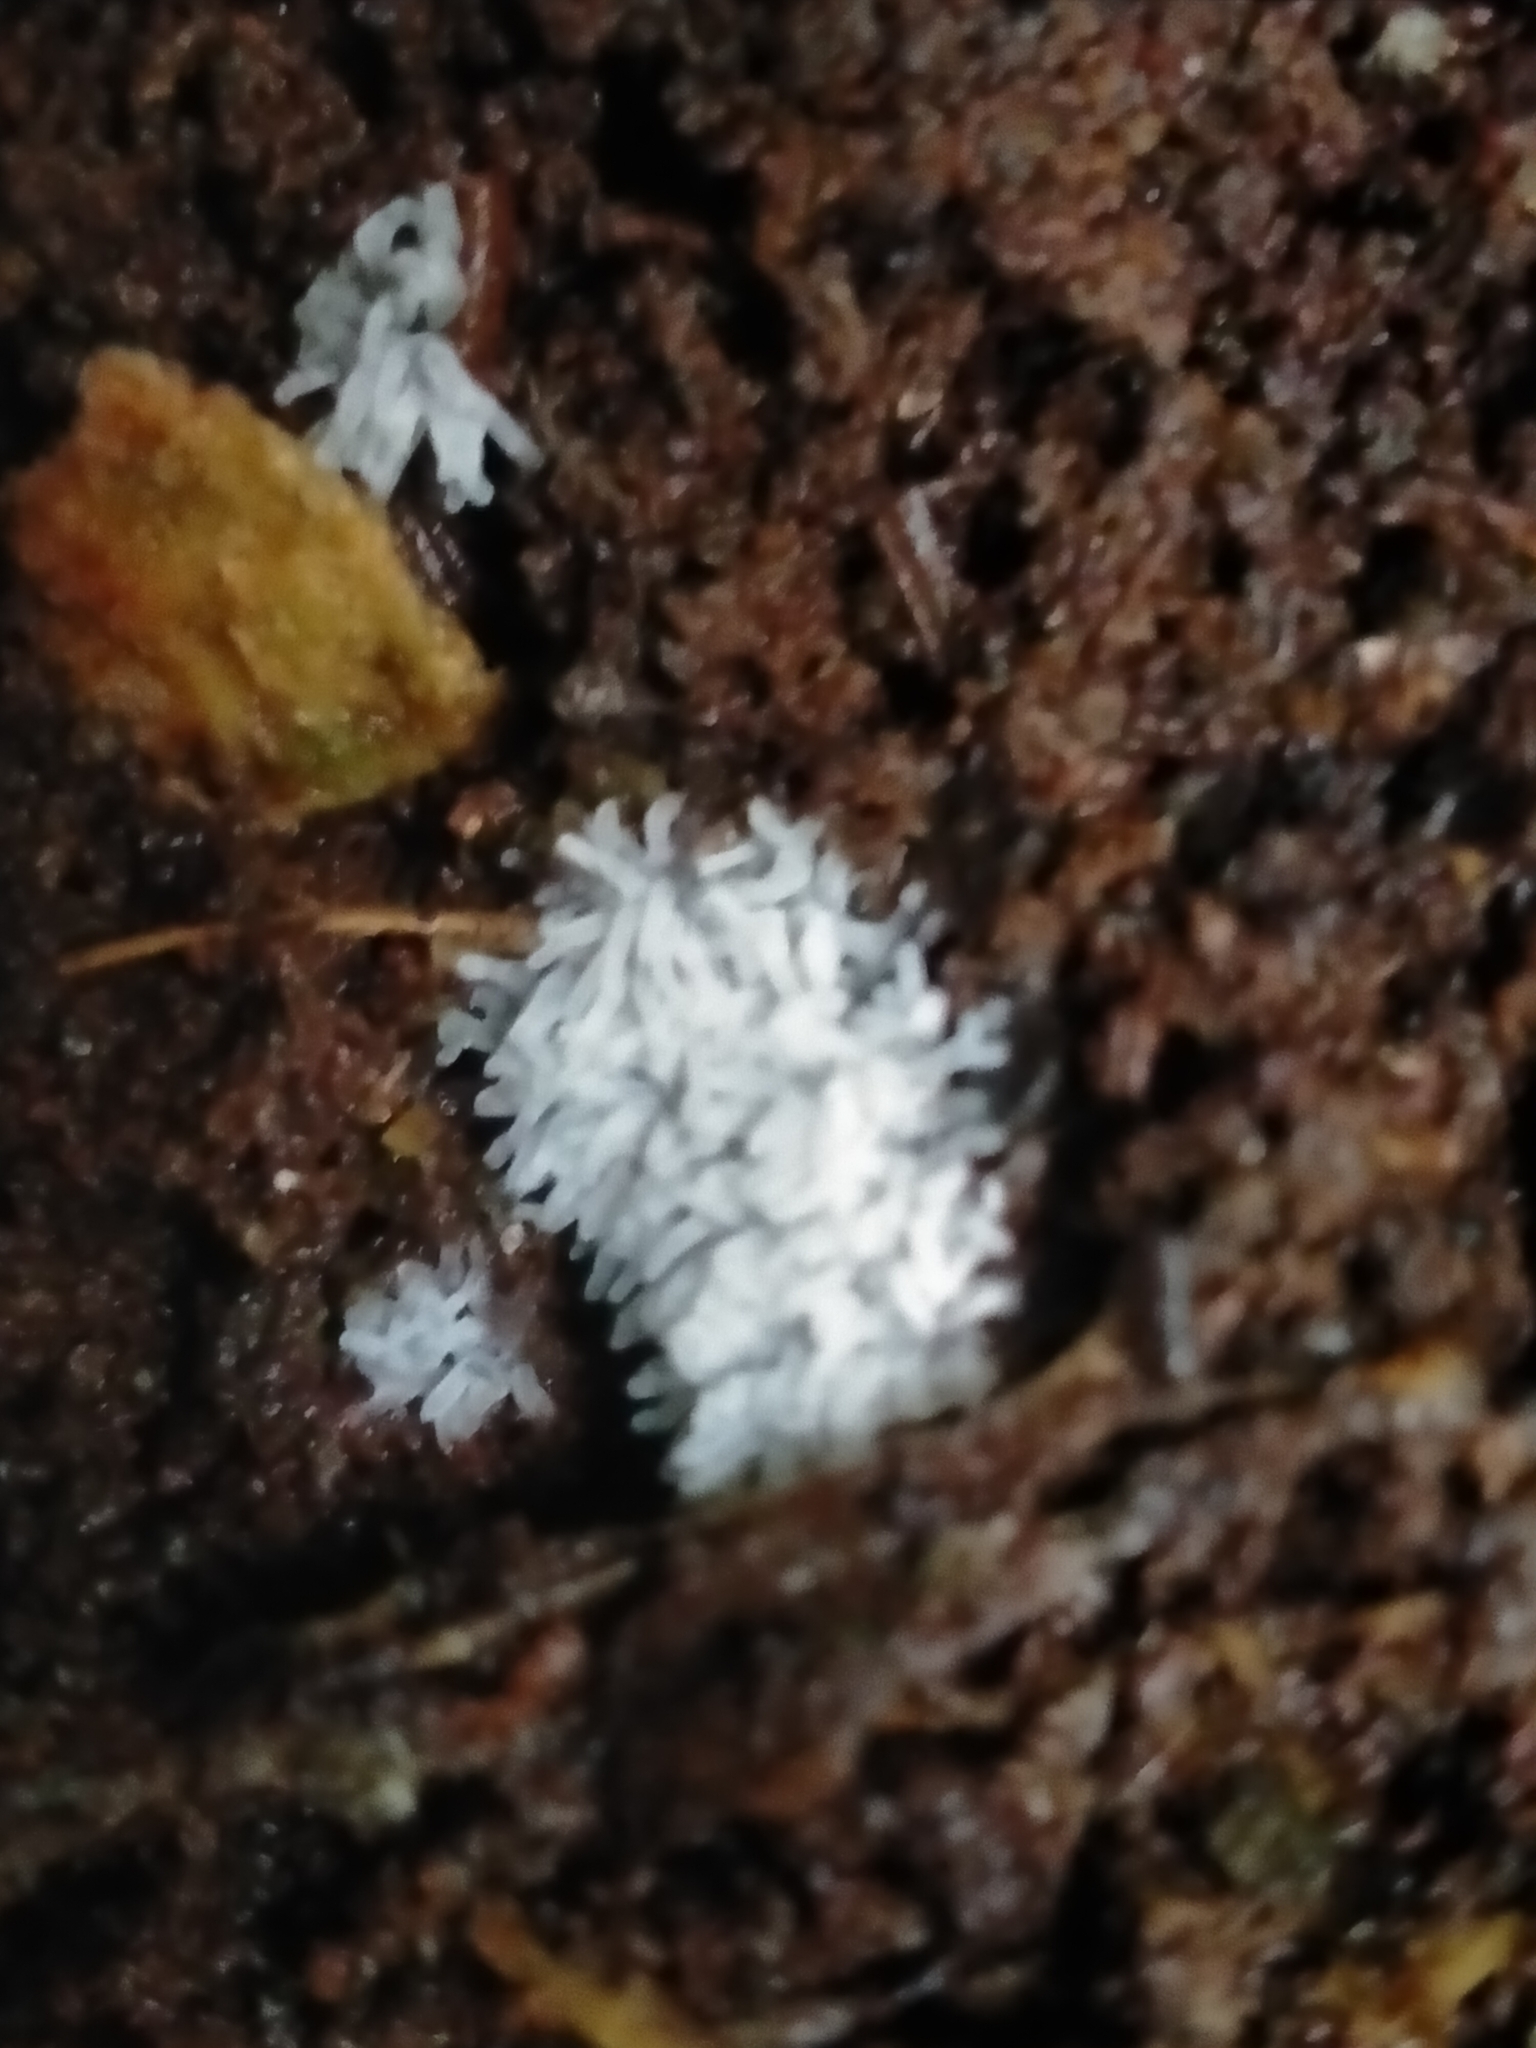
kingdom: Protozoa
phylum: Mycetozoa
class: Protosteliomycetes
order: Ceratiomyxales
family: Ceratiomyxaceae
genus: Ceratiomyxa
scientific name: Ceratiomyxa fruticulosa
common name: Honeycomb coral slime mold
